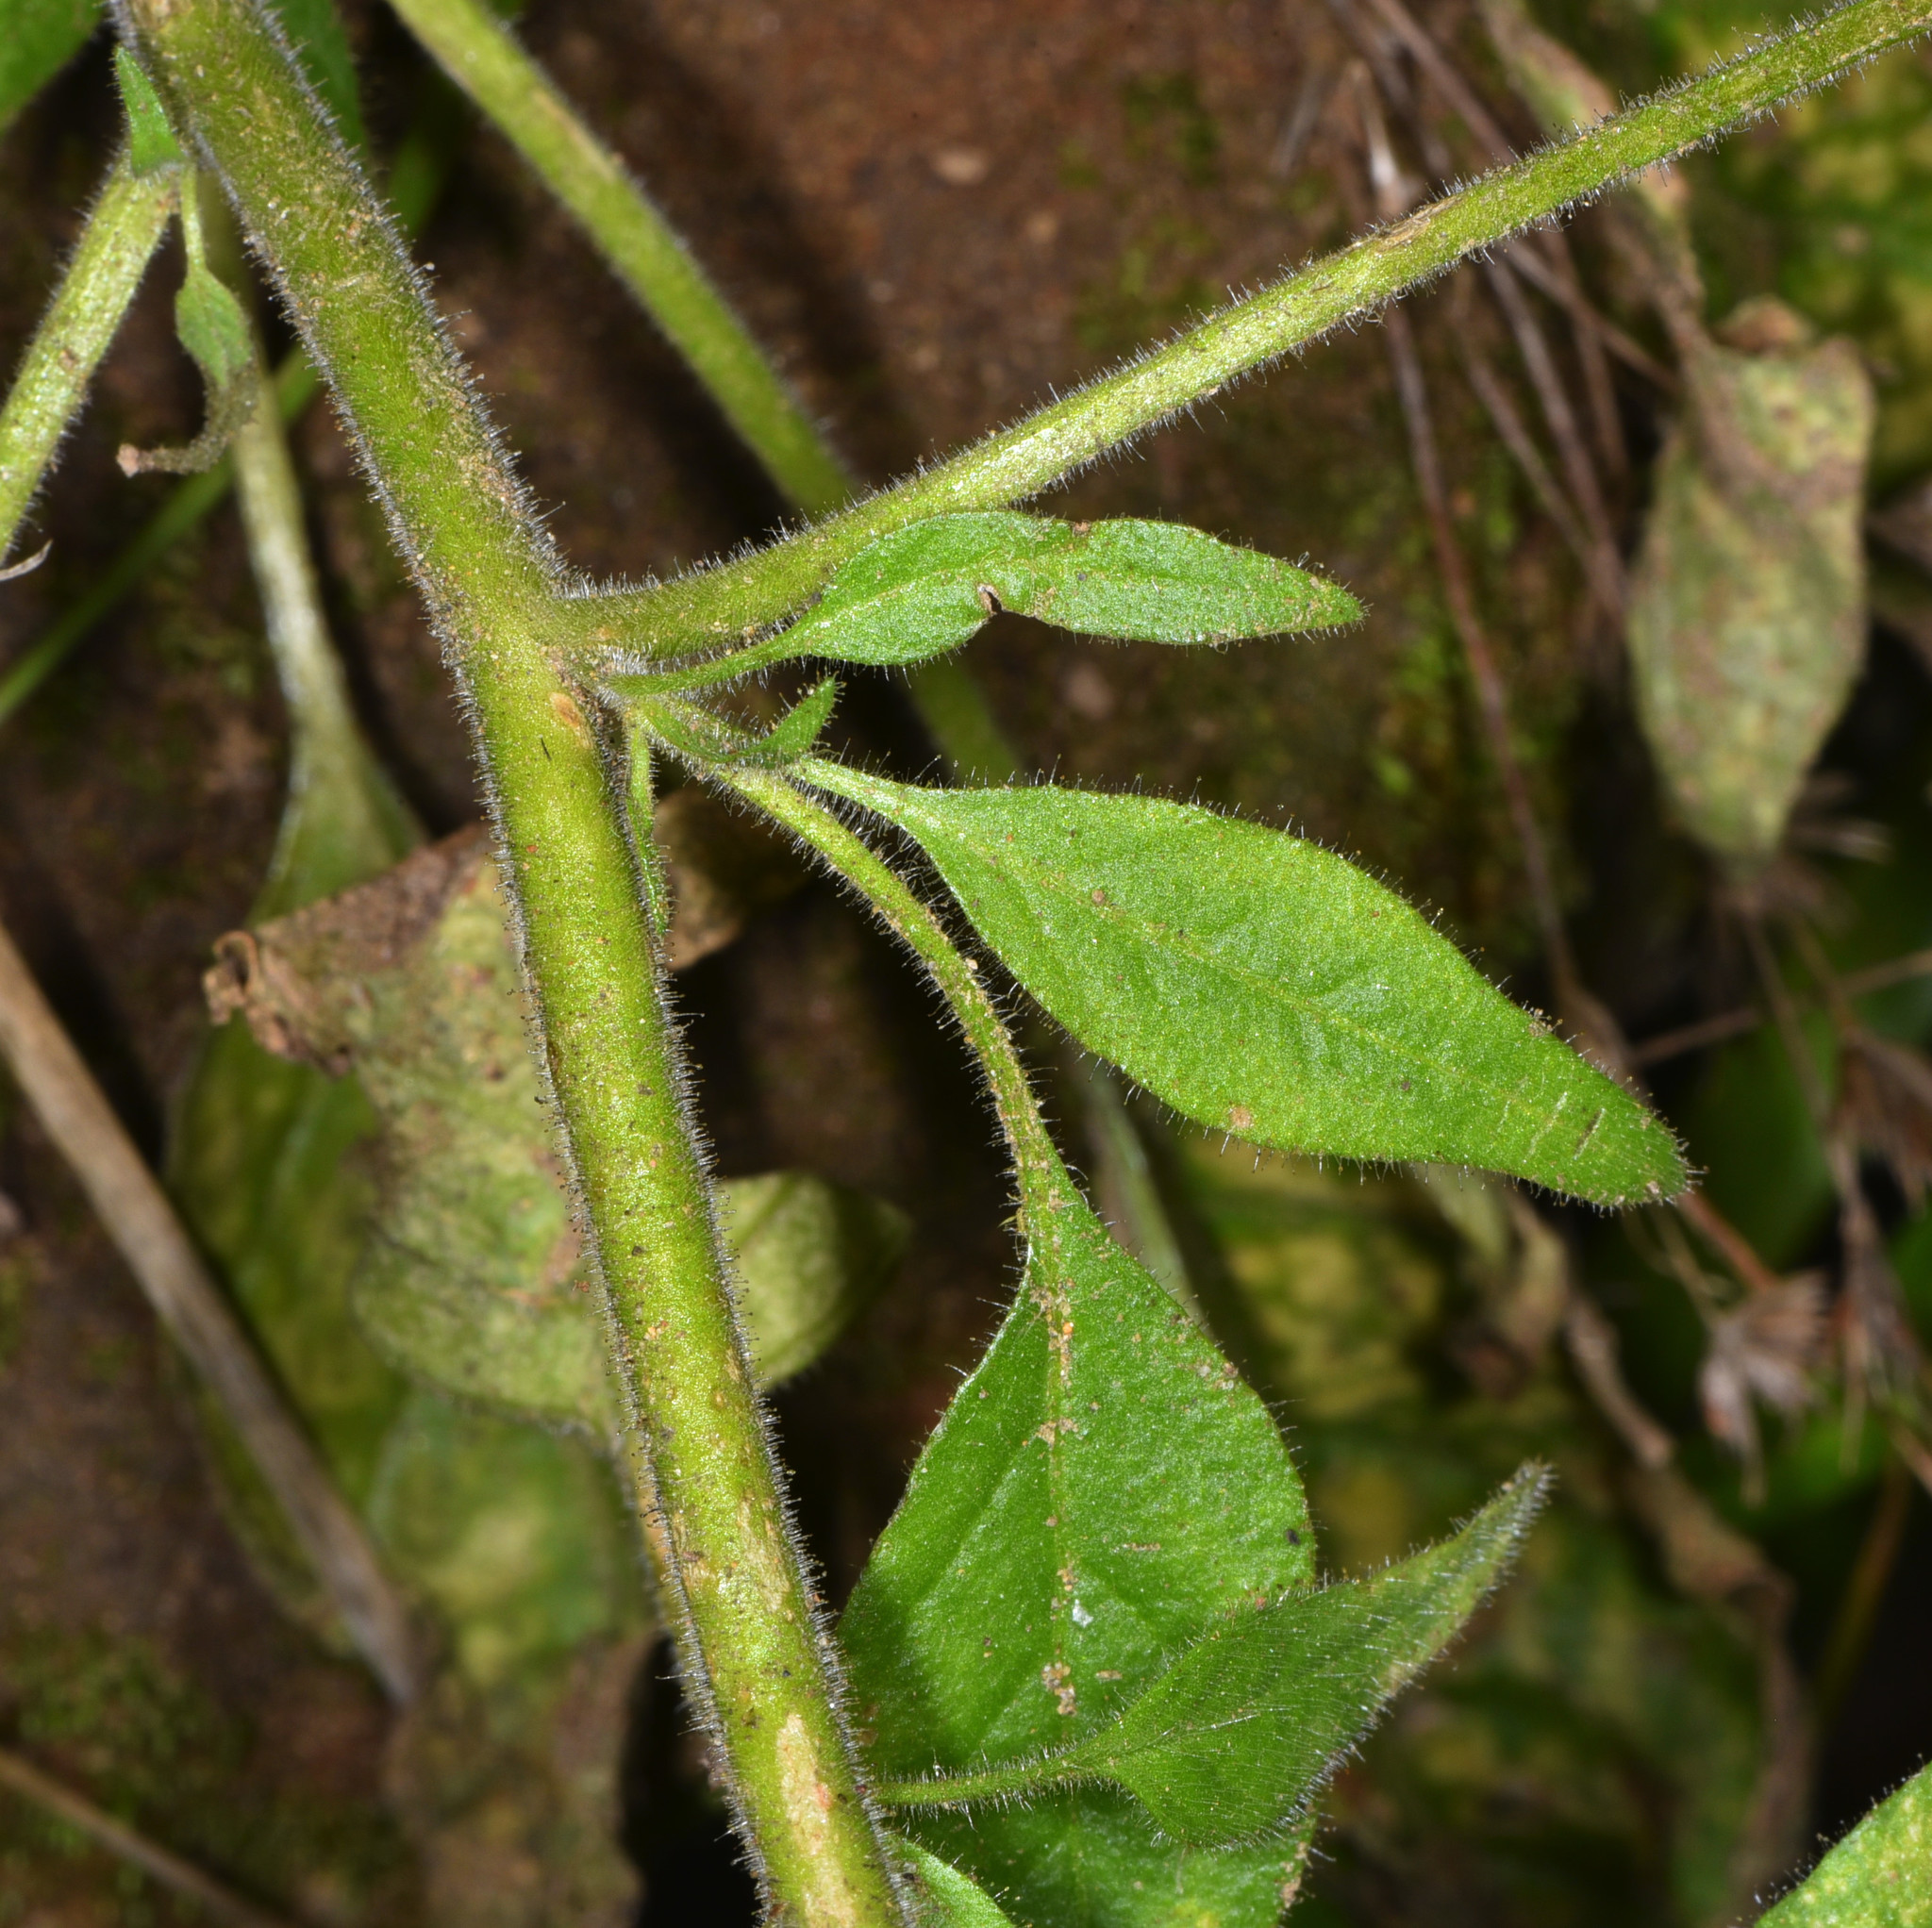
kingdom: Plantae
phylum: Tracheophyta
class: Magnoliopsida
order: Solanales
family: Solanaceae
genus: Nicotiana
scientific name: Nicotiana acuminata
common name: Manyflower tobacco
